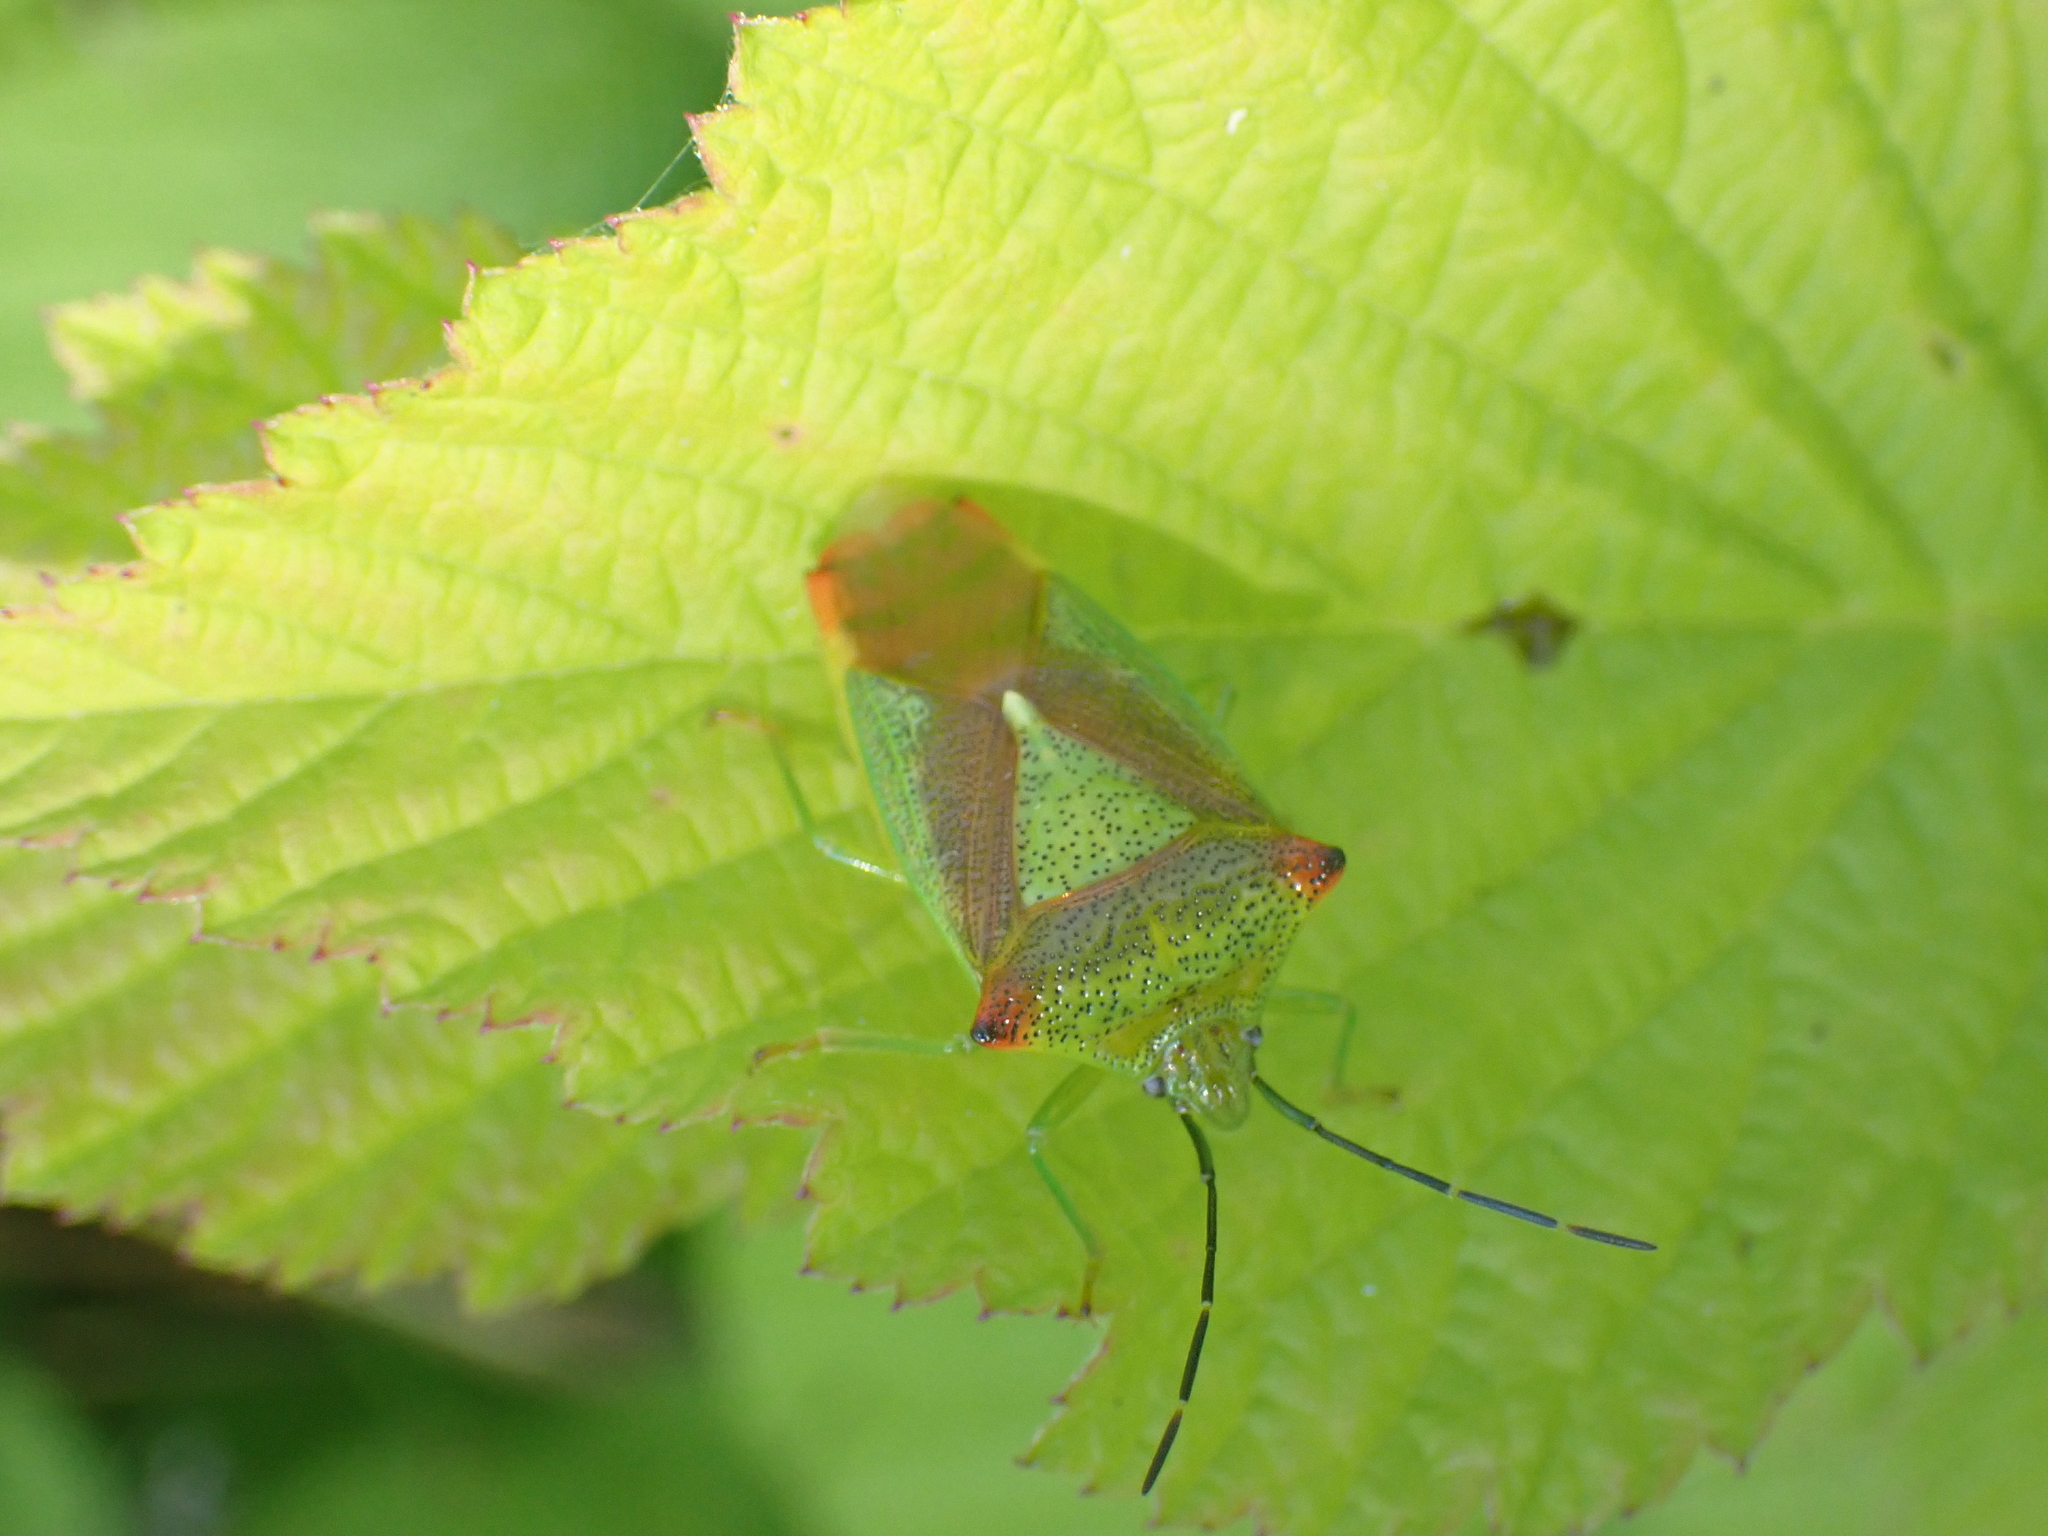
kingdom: Animalia
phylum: Arthropoda
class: Insecta
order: Hemiptera
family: Acanthosomatidae
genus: Acanthosoma
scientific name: Acanthosoma haemorrhoidale
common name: Hawthorn shieldbug
